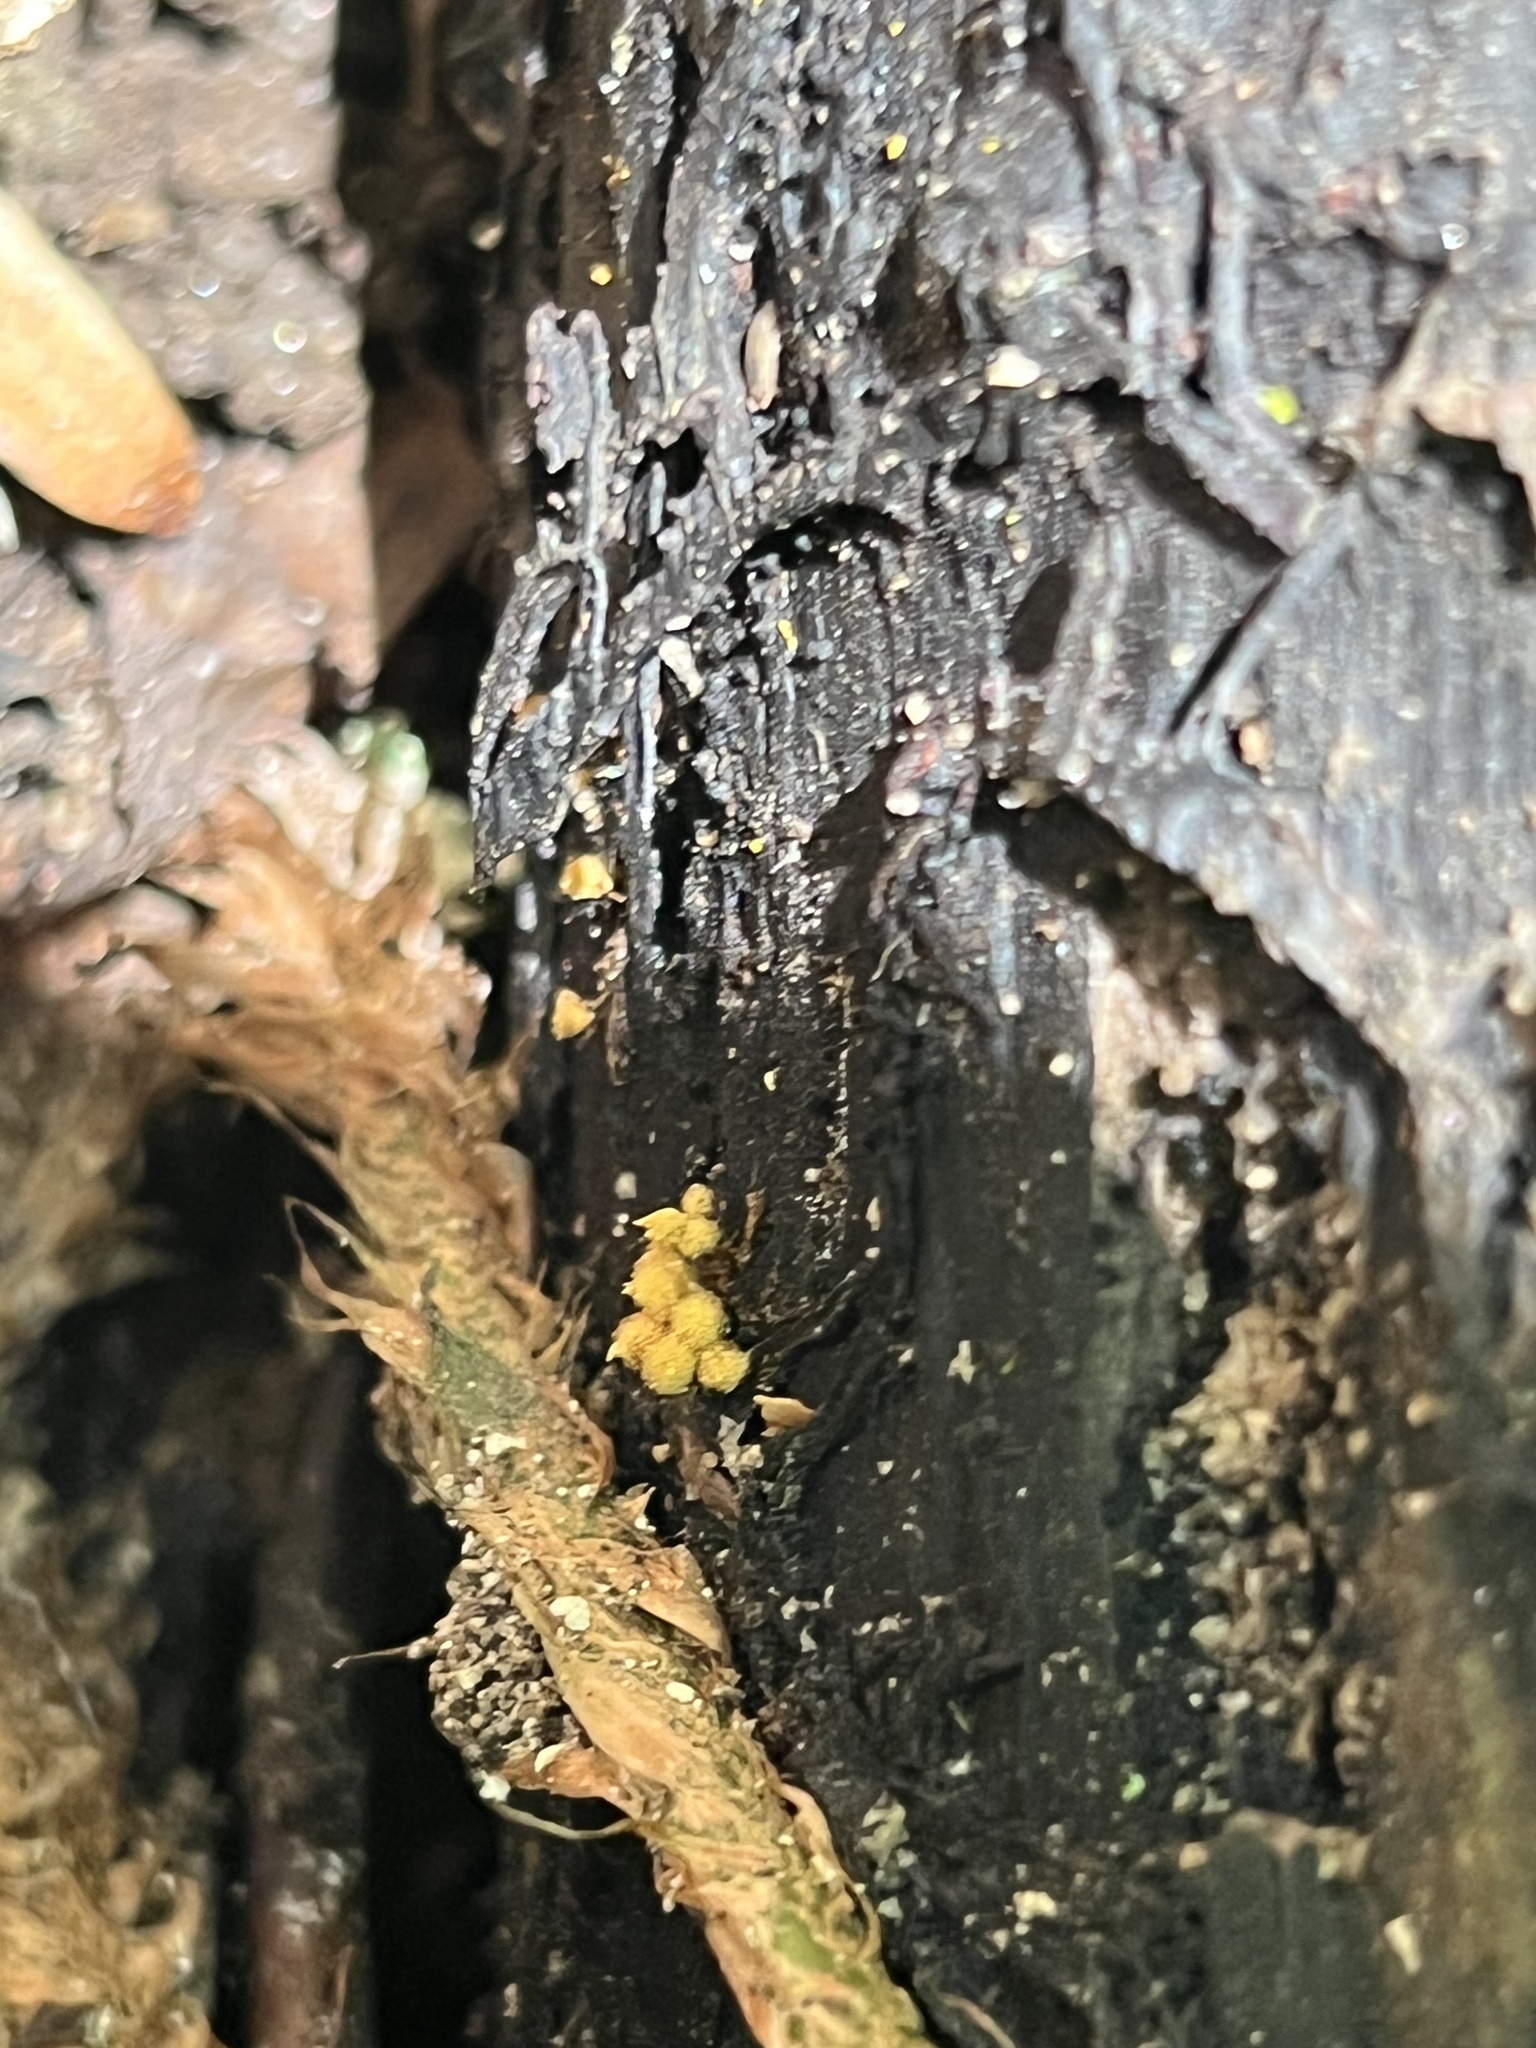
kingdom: Protozoa
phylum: Mycetozoa
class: Myxomycetes
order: Trichiales
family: Arcyriaceae
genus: Hemitrichia
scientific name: Hemitrichia calyculata
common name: Push pin slime mold
